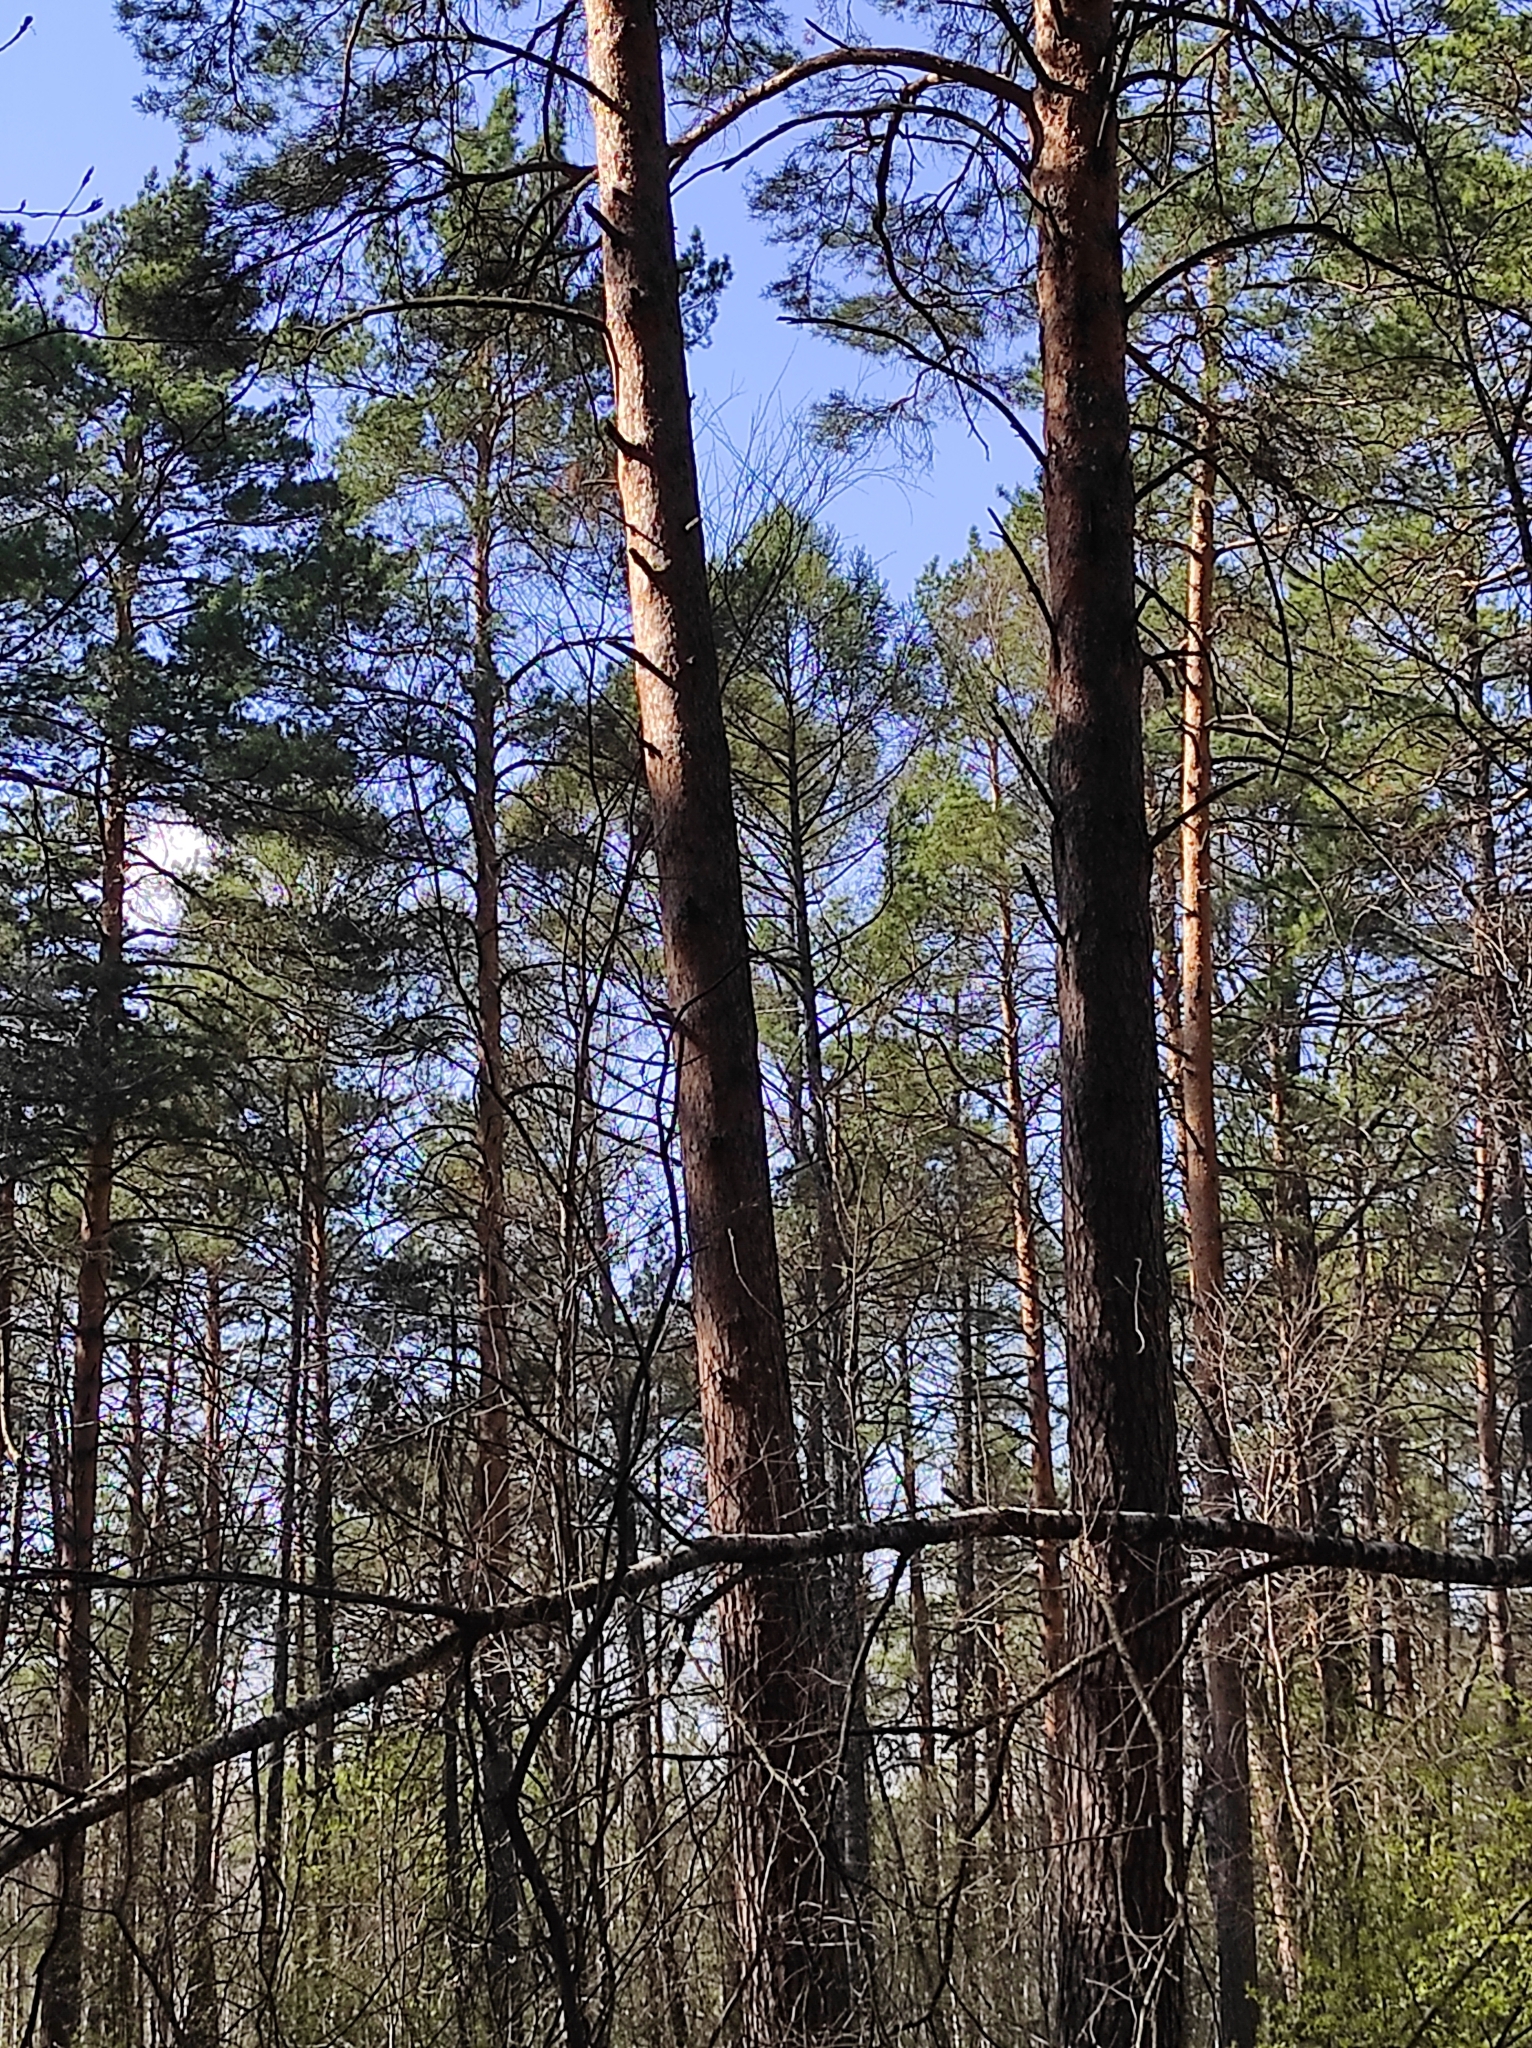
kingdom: Plantae
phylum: Tracheophyta
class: Pinopsida
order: Pinales
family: Pinaceae
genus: Larix
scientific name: Larix sibirica
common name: Siberian larch
